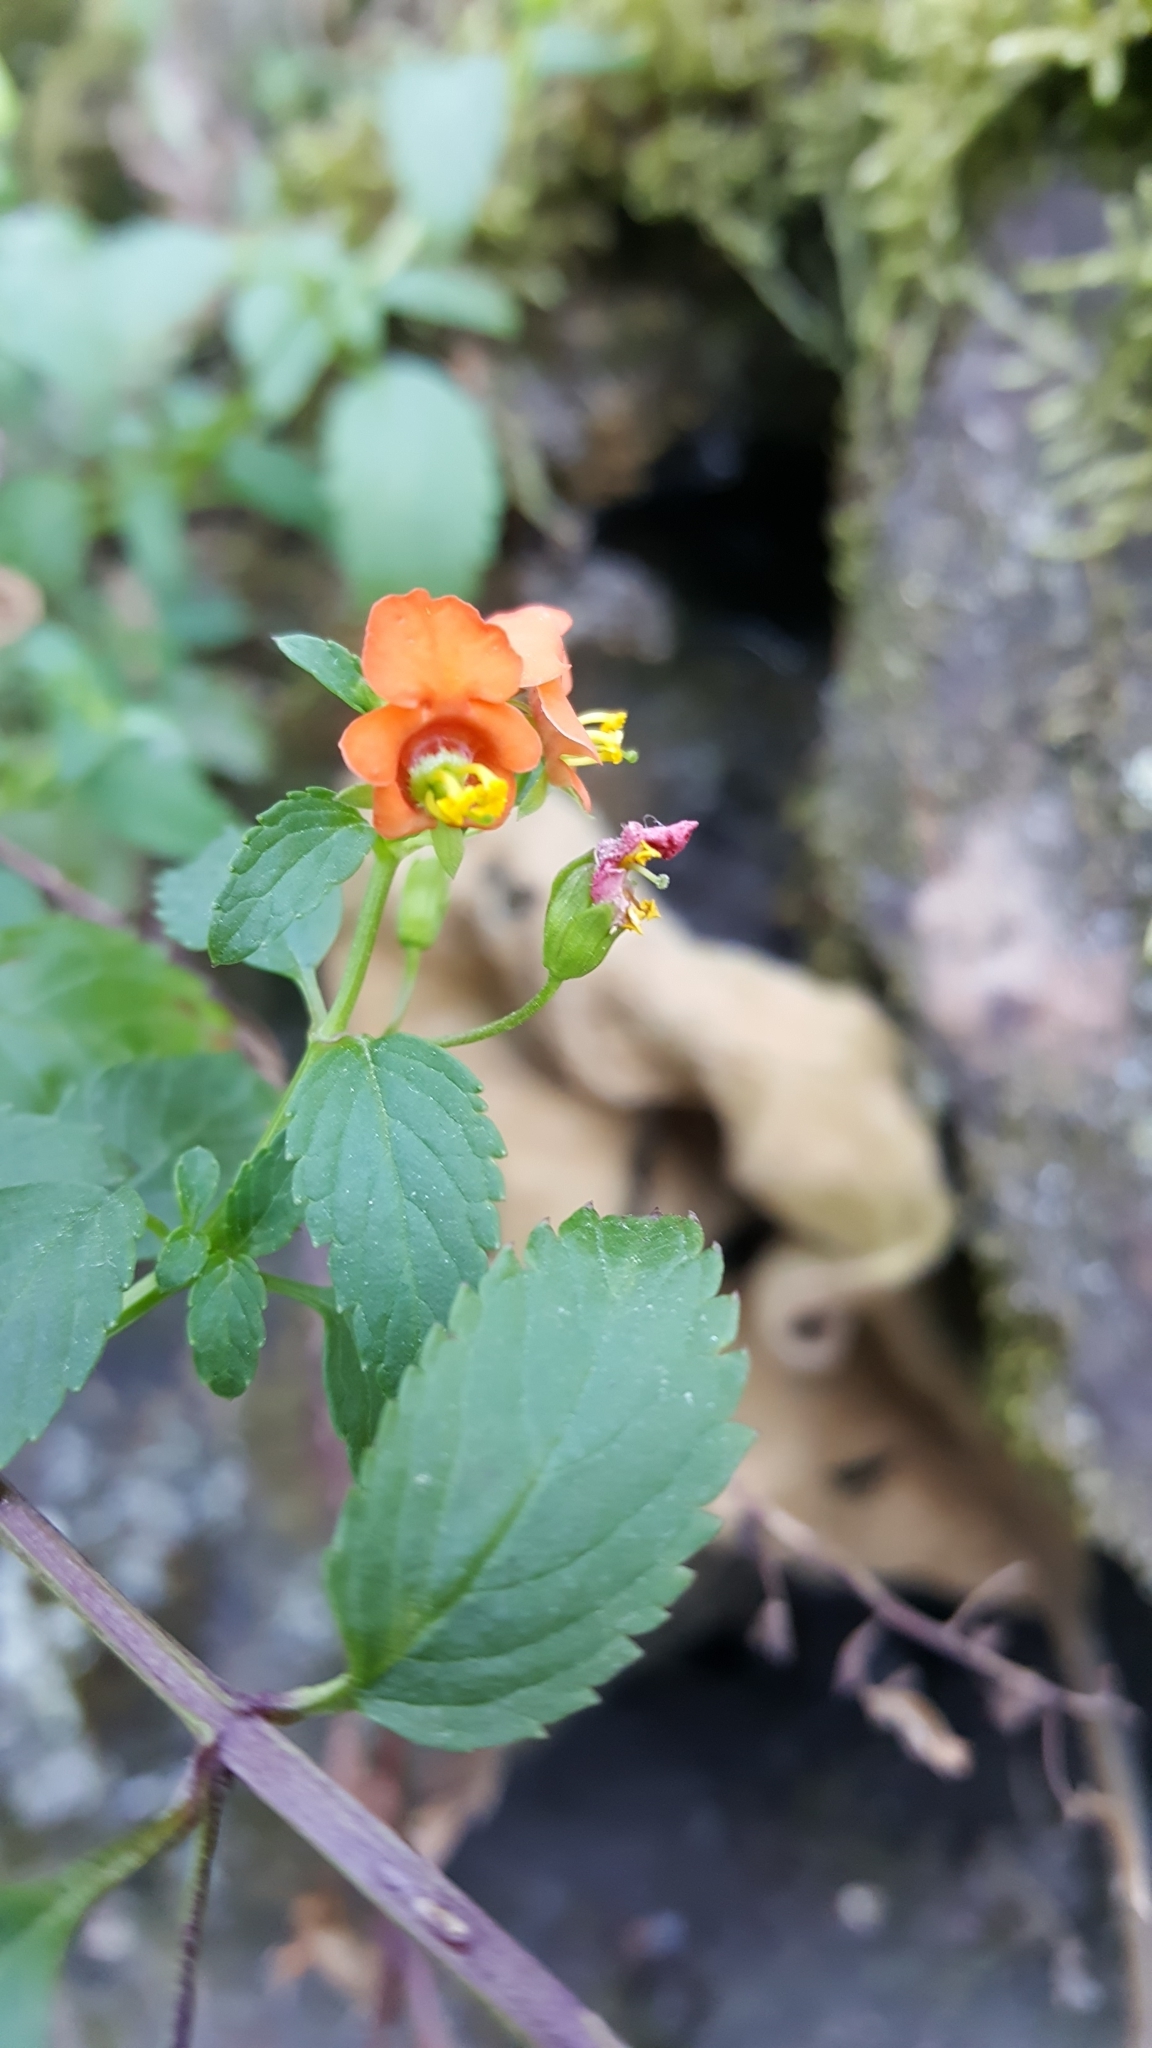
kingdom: Plantae
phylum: Tracheophyta
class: Magnoliopsida
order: Lamiales
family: Scrophulariaceae
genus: Alonsoa
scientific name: Alonsoa meridionalis
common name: Maskflower
